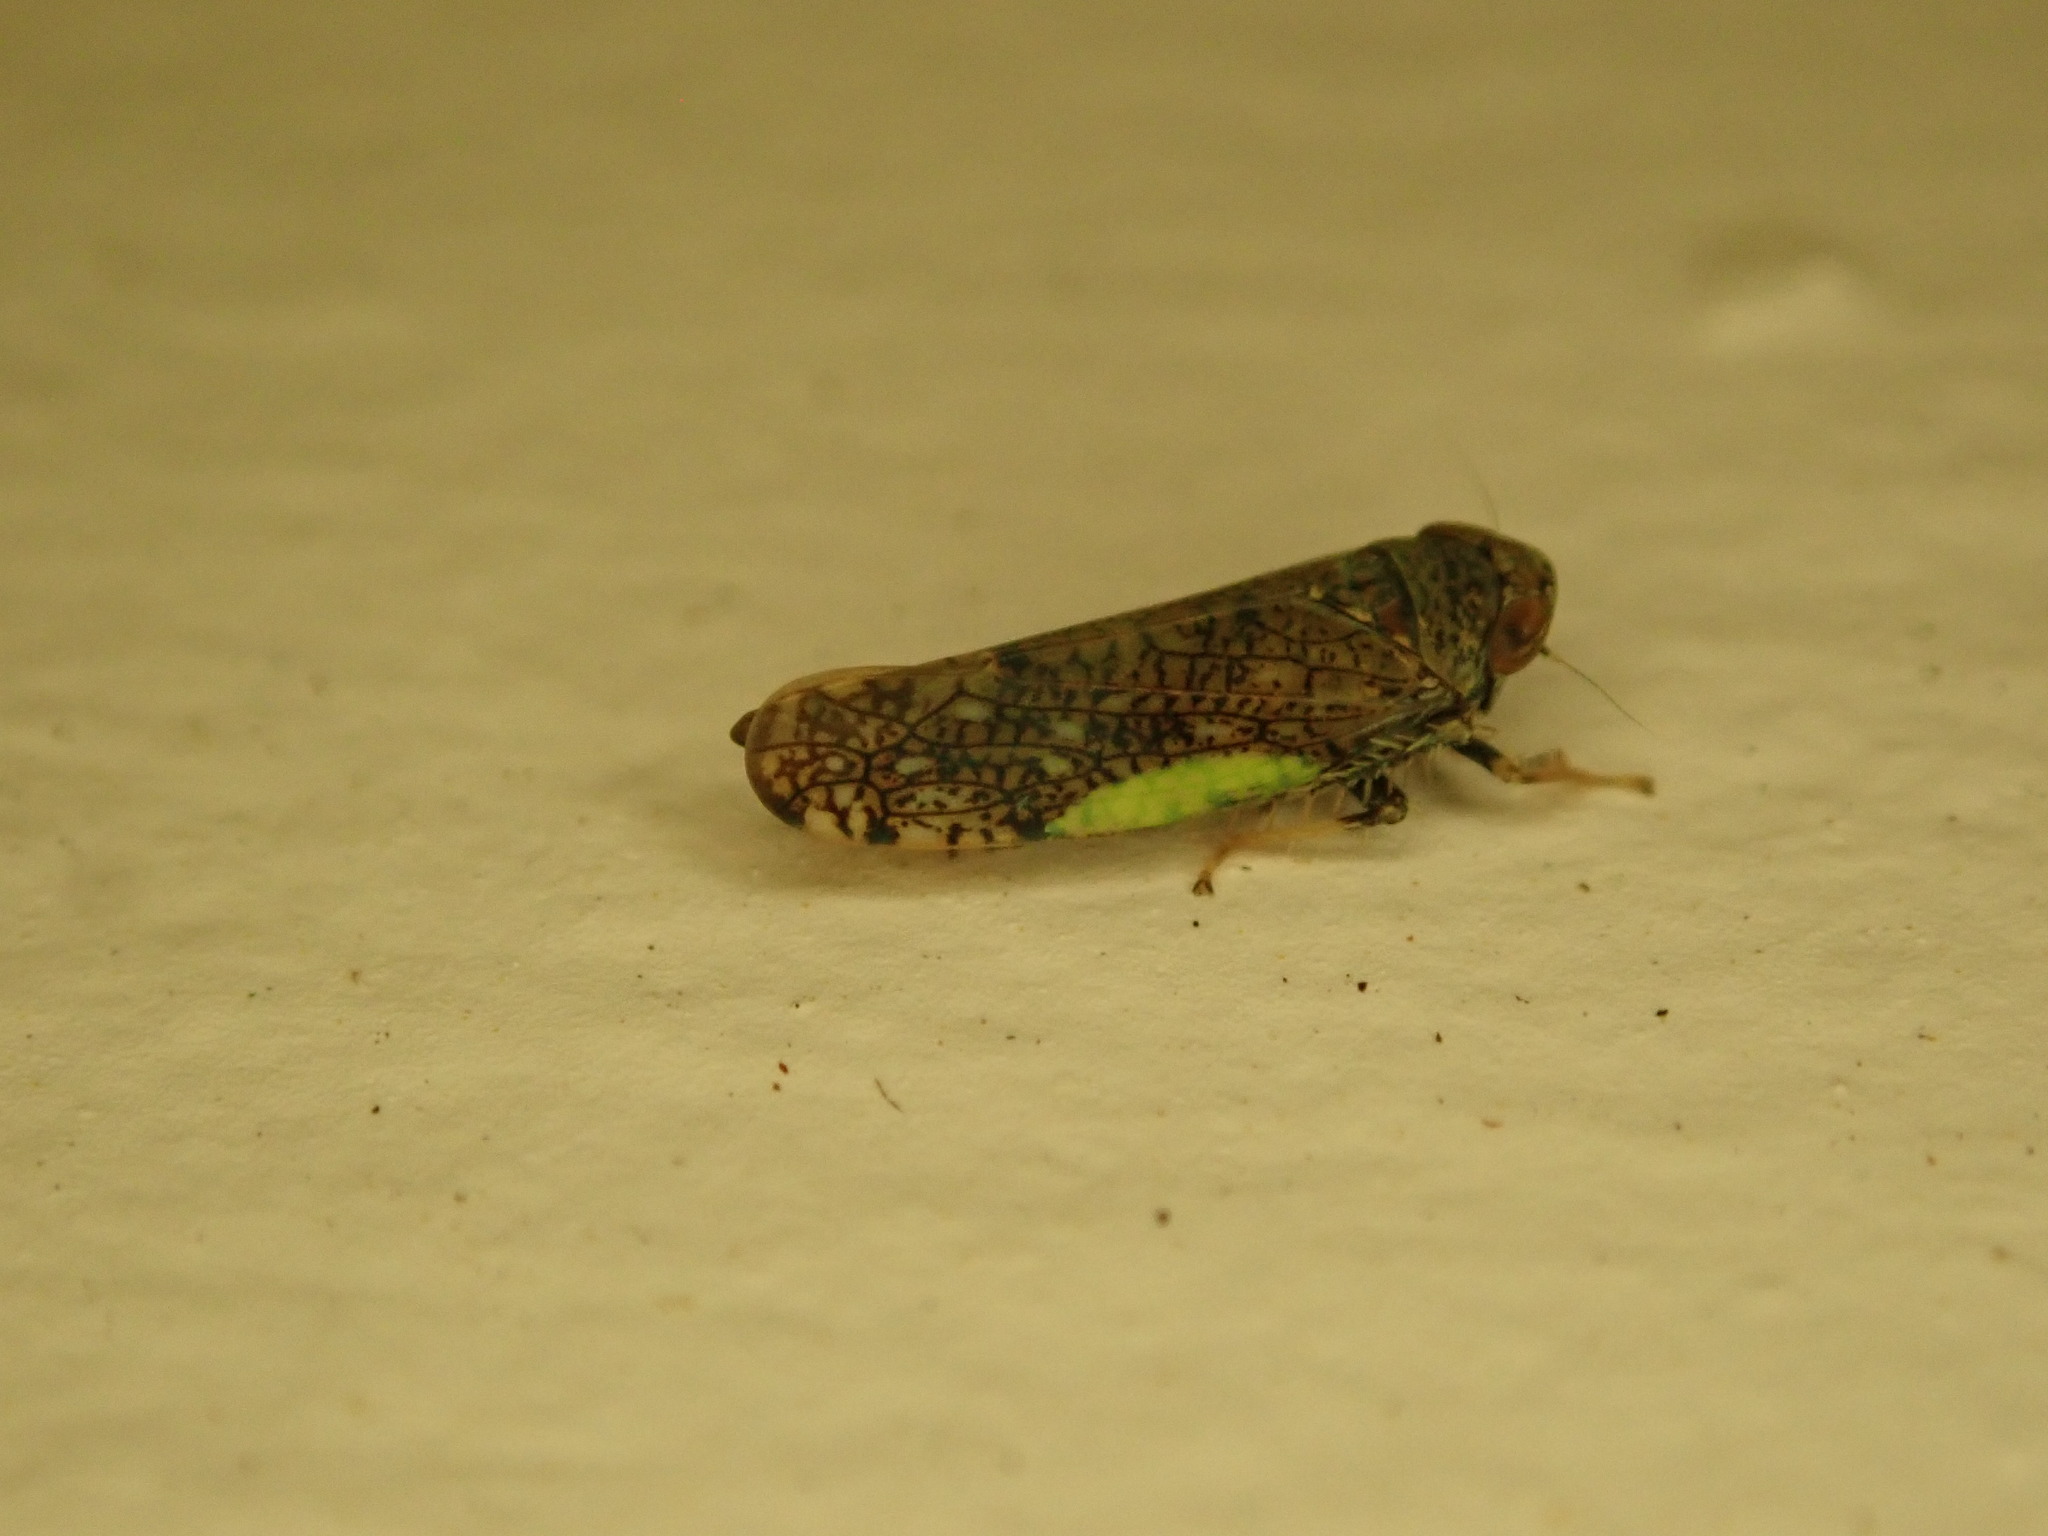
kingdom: Animalia
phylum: Arthropoda
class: Insecta
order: Hemiptera
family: Cicadellidae
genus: Orientus
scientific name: Orientus ishidae
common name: Japanese leafhopper
